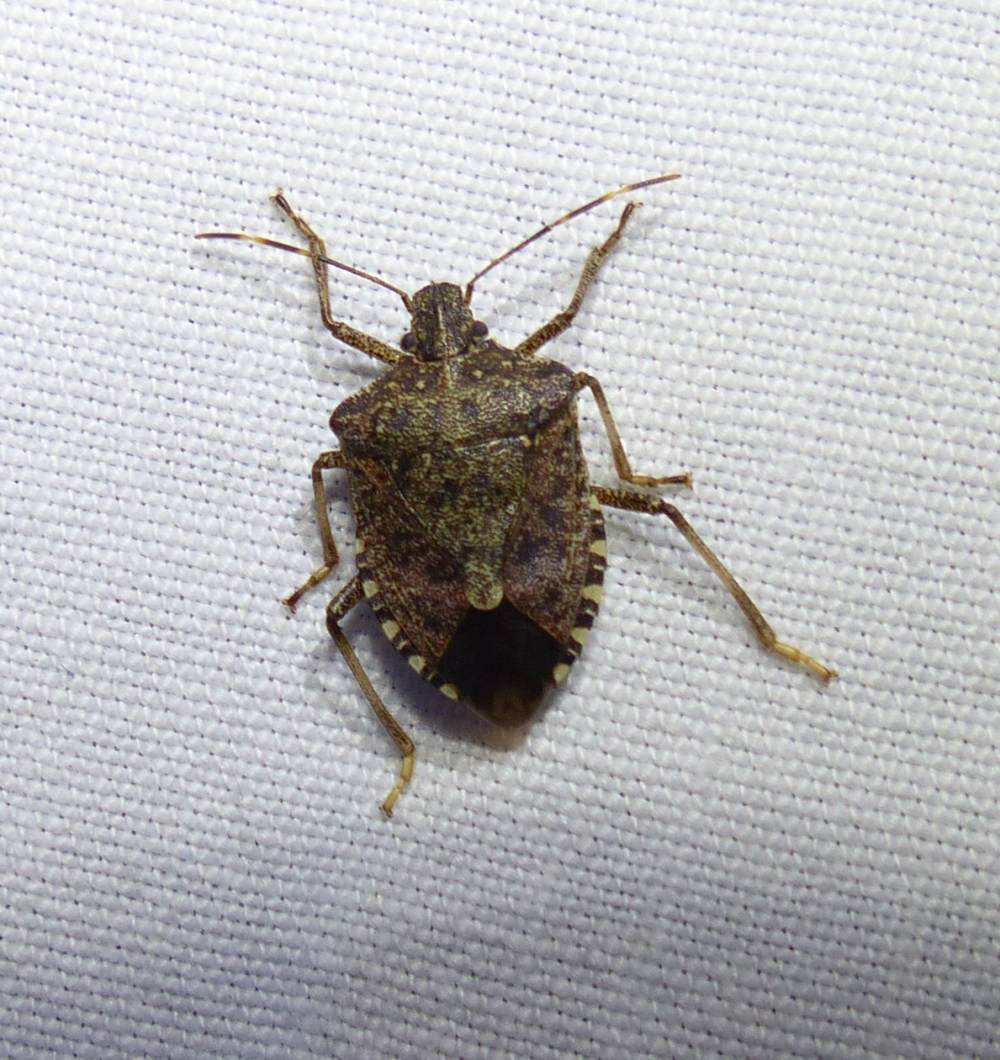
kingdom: Animalia
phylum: Arthropoda
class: Insecta
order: Hemiptera
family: Pentatomidae
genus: Halyomorpha
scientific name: Halyomorpha halys
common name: Brown marmorated stink bug
